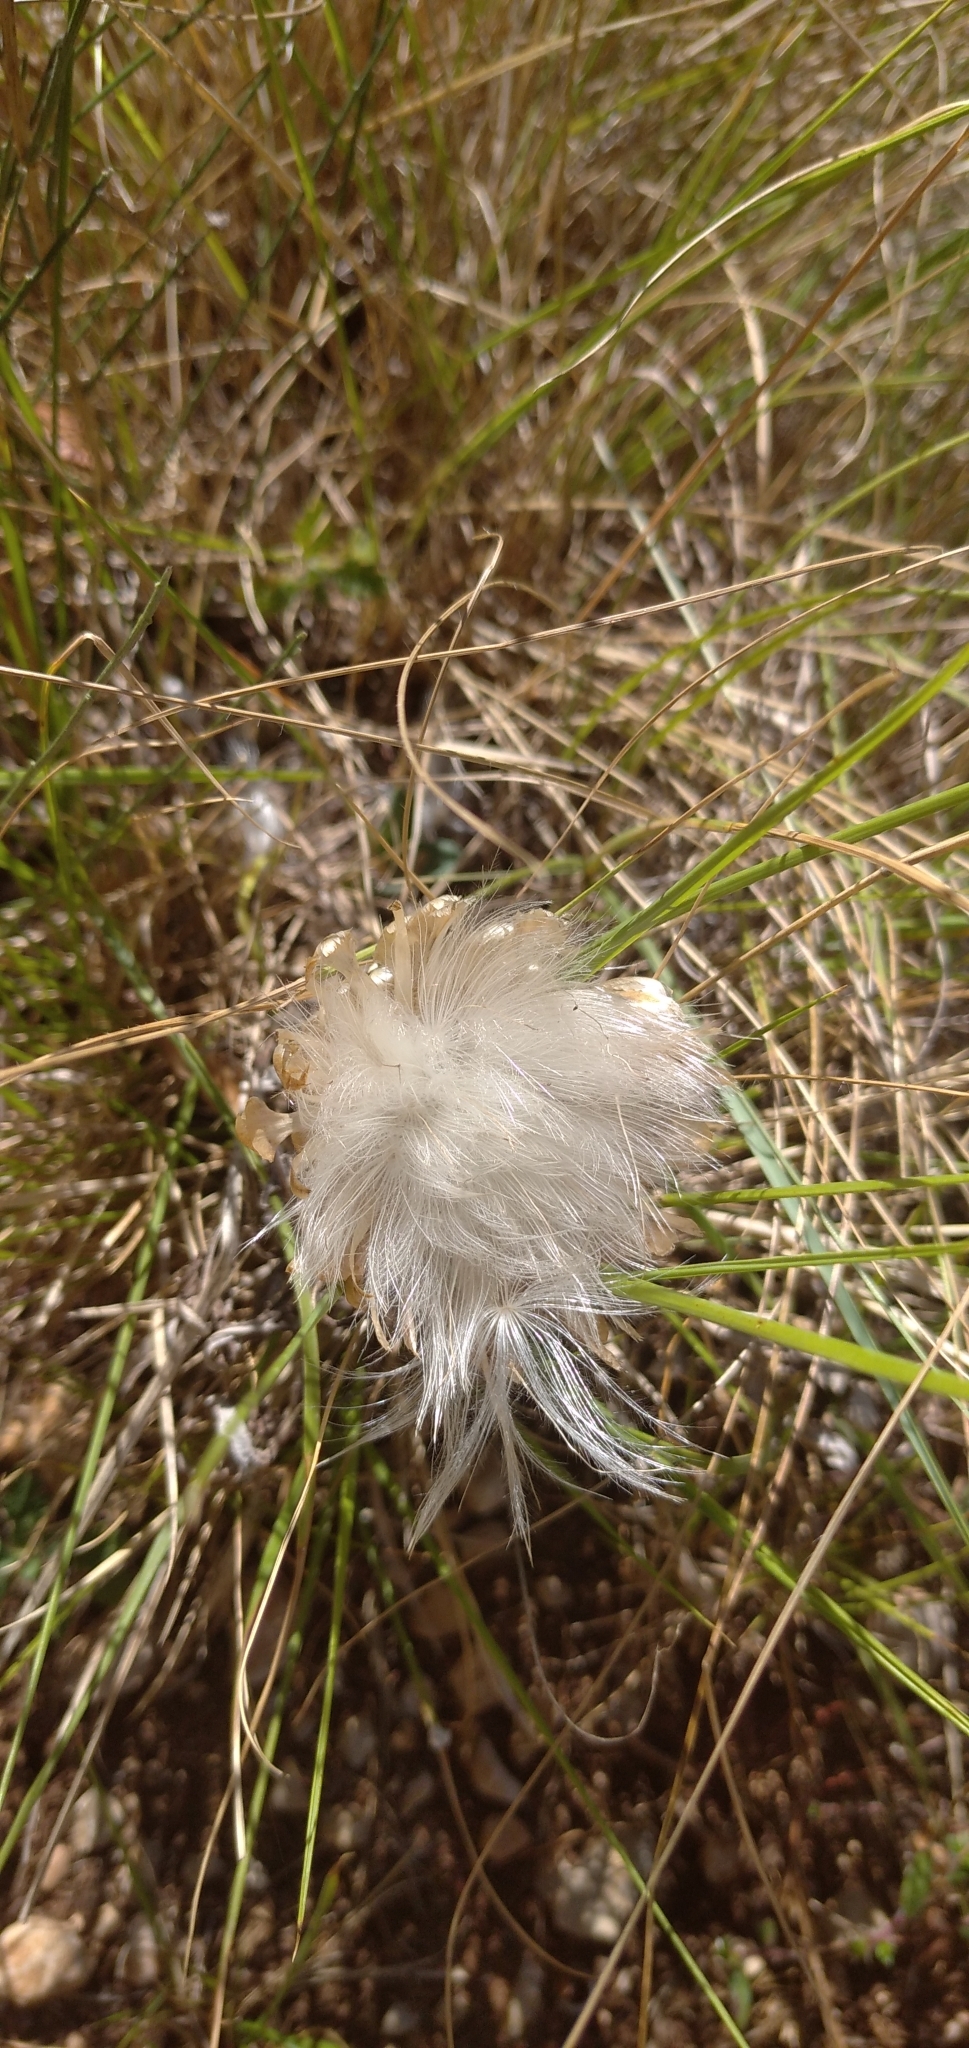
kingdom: Plantae
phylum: Tracheophyta
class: Magnoliopsida
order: Asterales
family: Asteraceae
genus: Leuzea
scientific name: Leuzea conifera
